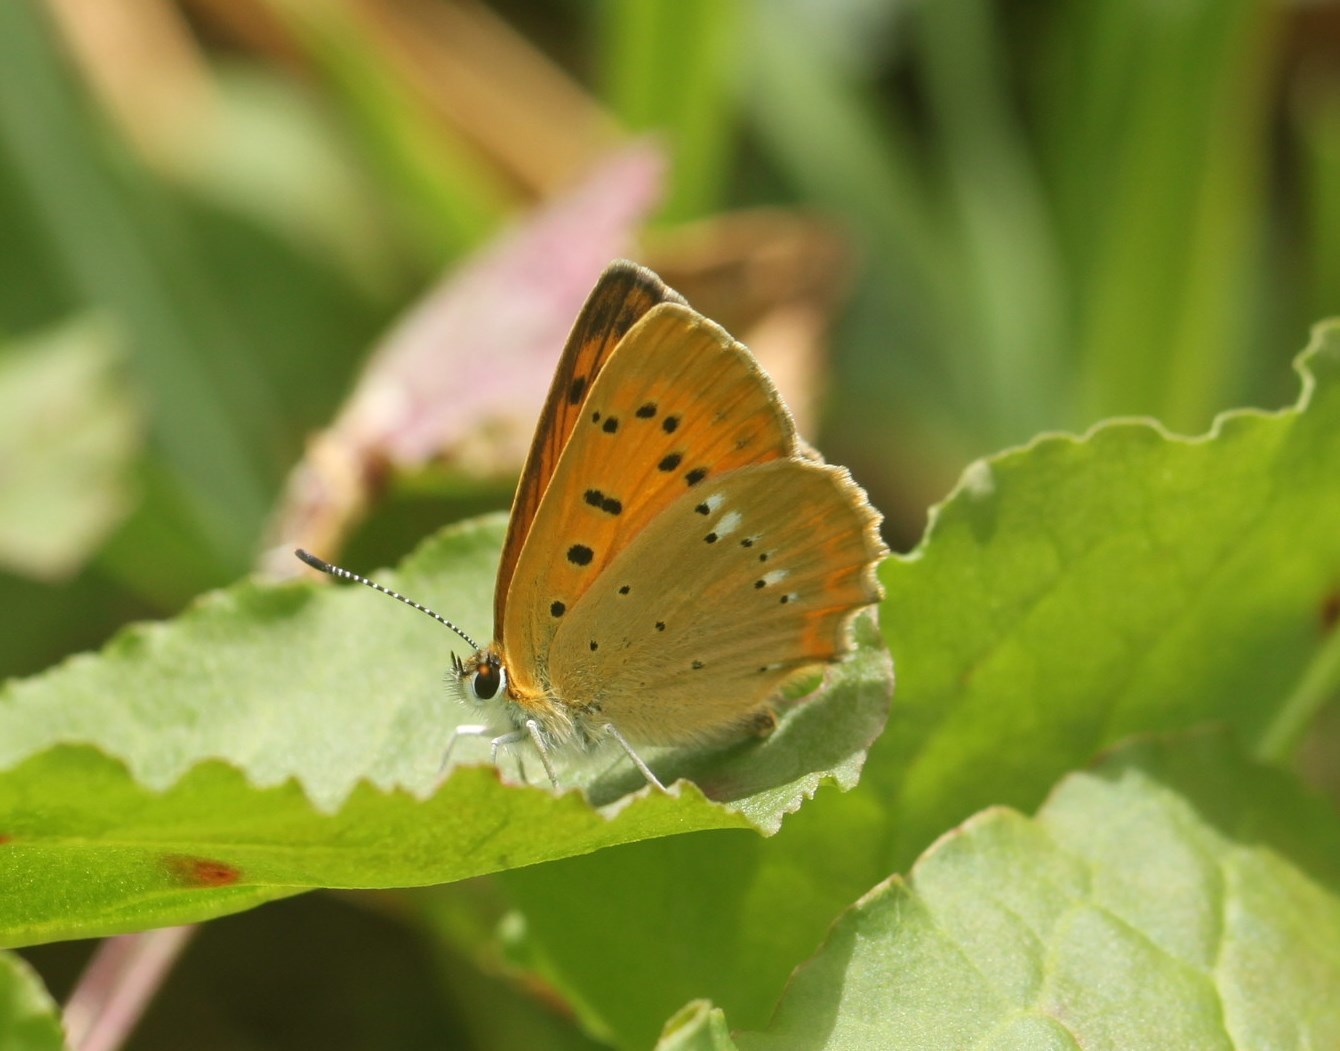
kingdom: Animalia
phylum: Arthropoda
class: Insecta
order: Lepidoptera
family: Lycaenidae
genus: Lycaena
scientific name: Lycaena virgaureae
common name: Scarce copper
